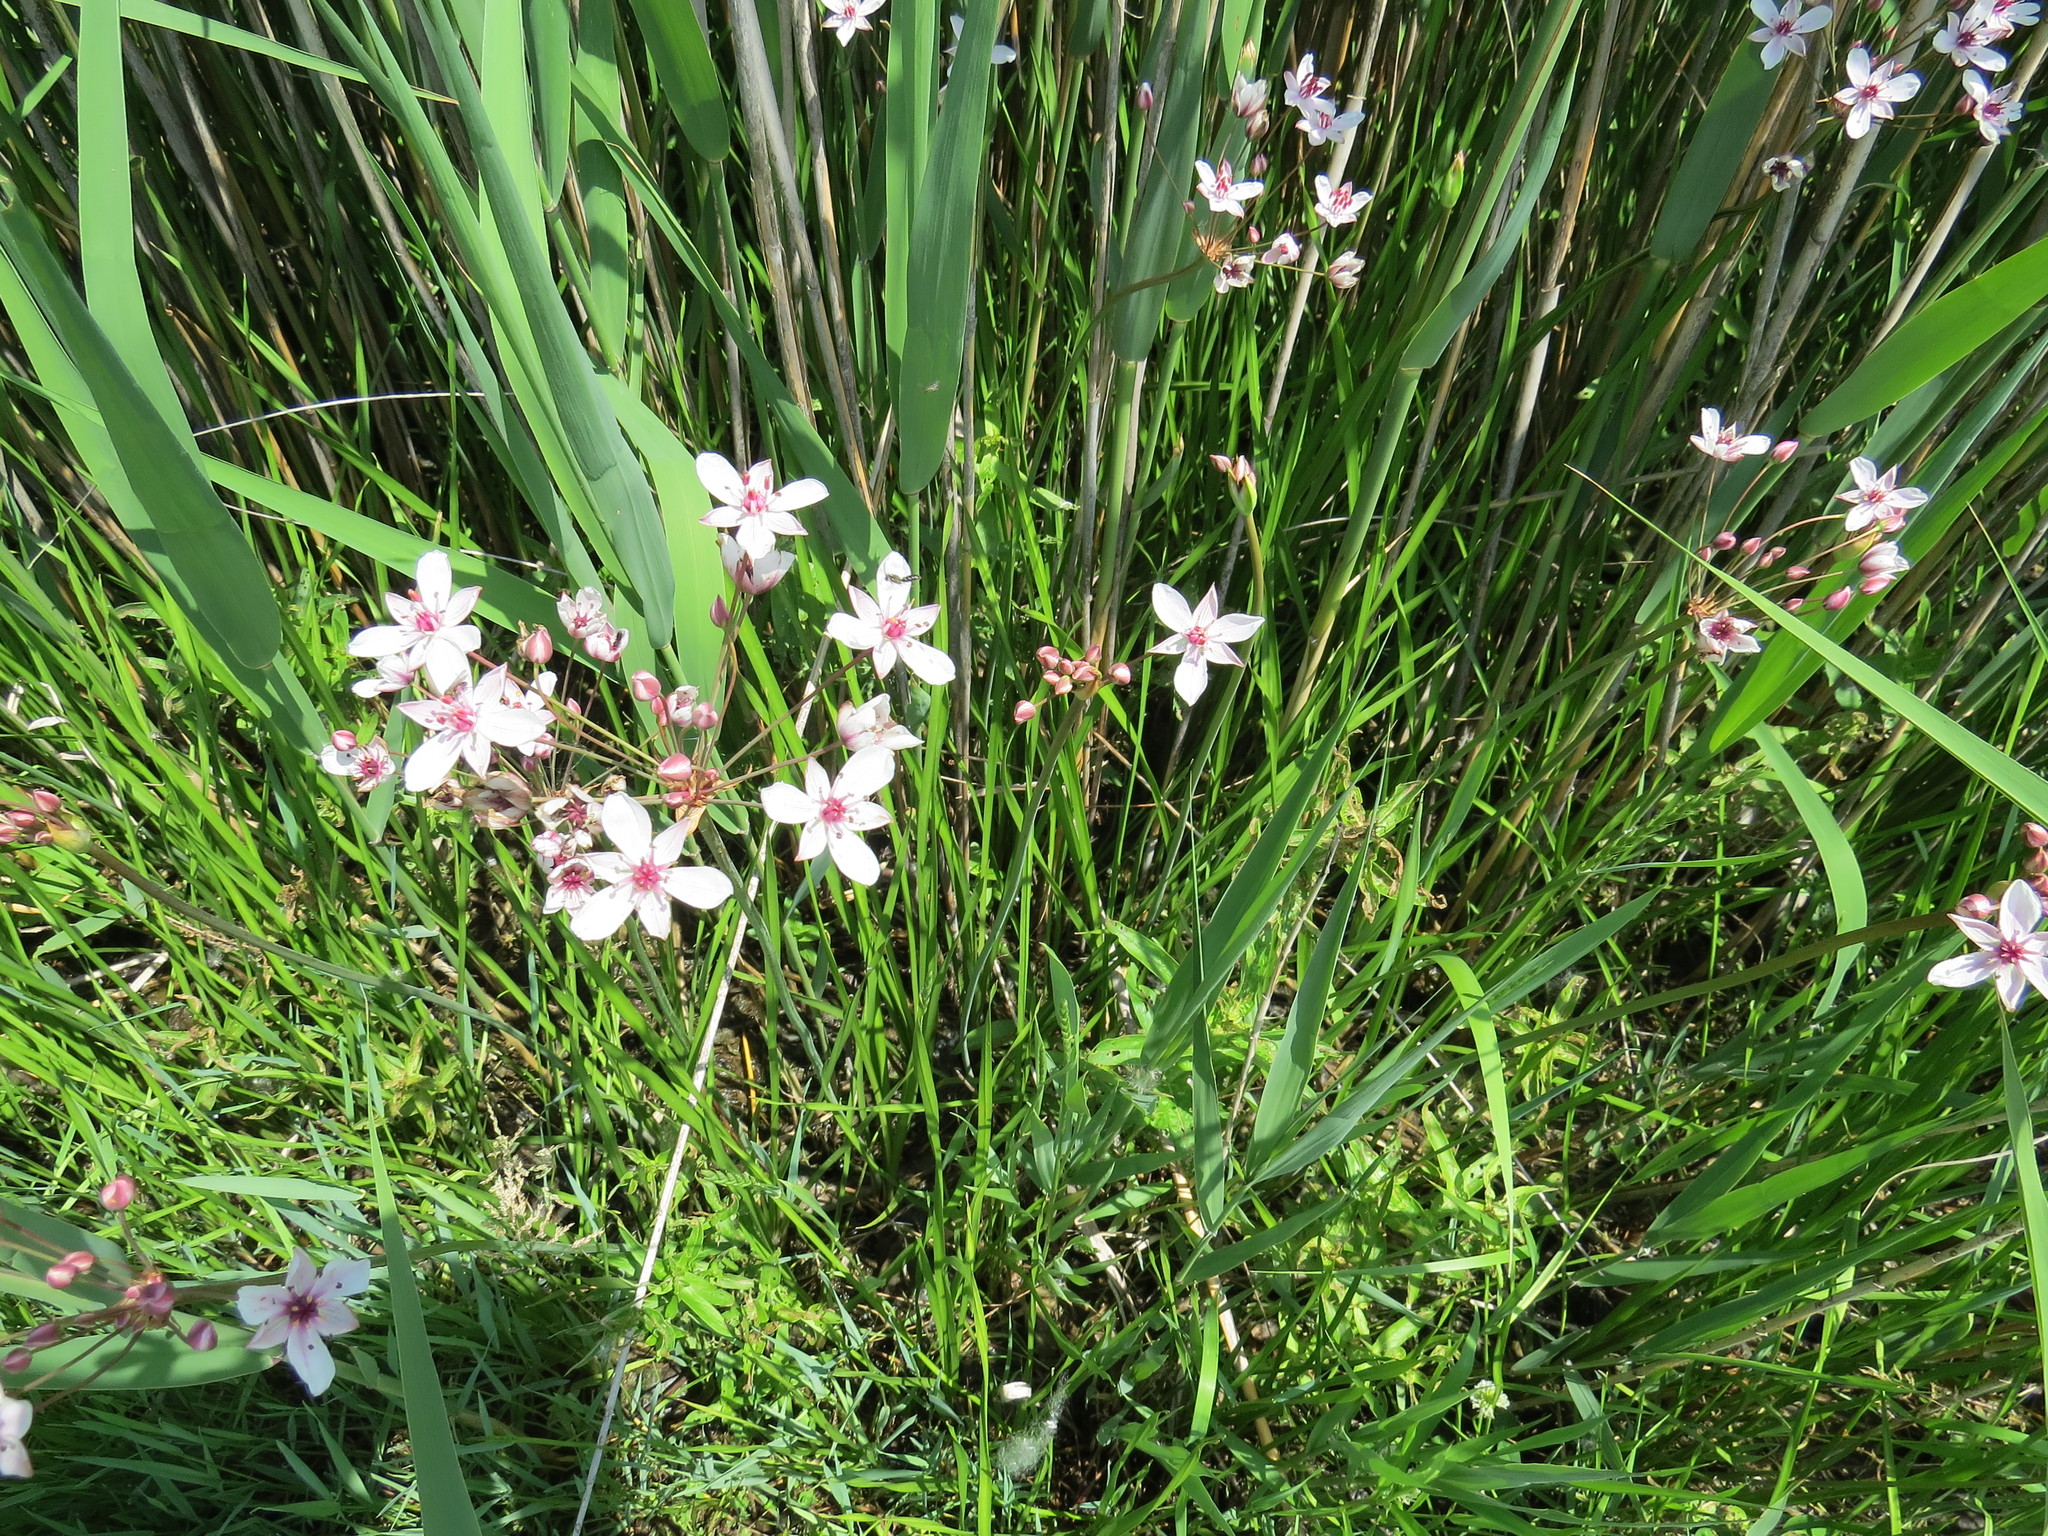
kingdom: Plantae
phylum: Tracheophyta
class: Liliopsida
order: Alismatales
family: Butomaceae
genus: Butomus
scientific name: Butomus umbellatus
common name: Flowering-rush
